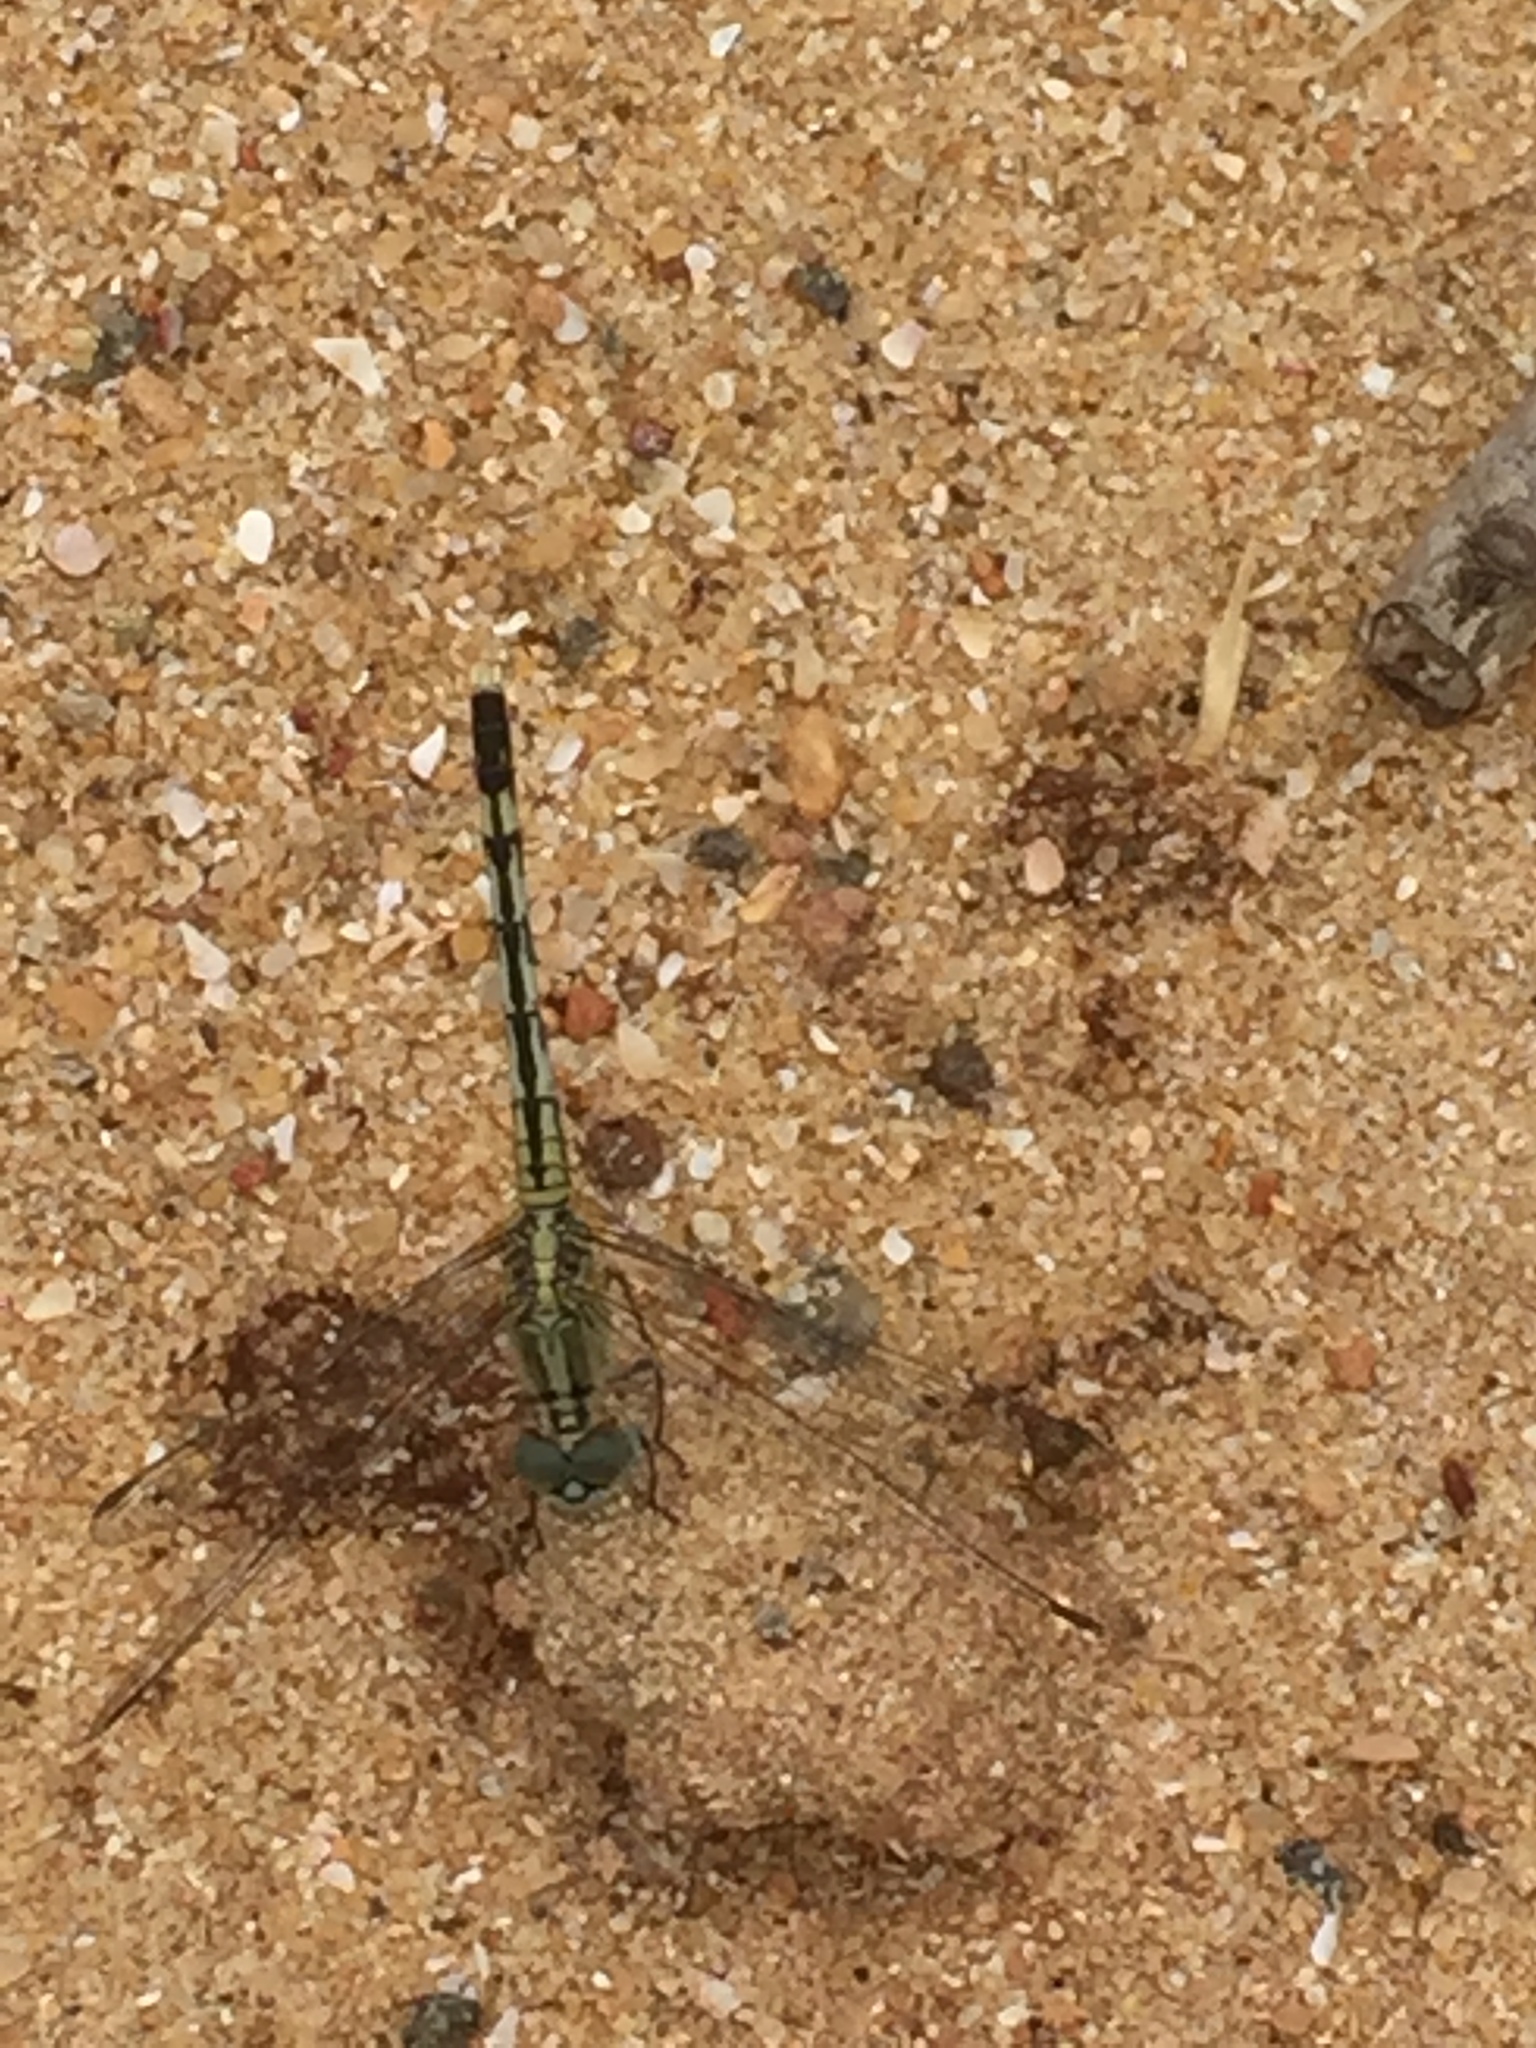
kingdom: Animalia
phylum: Arthropoda
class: Insecta
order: Odonata
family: Libellulidae
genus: Diplacodes
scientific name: Diplacodes trivialis
